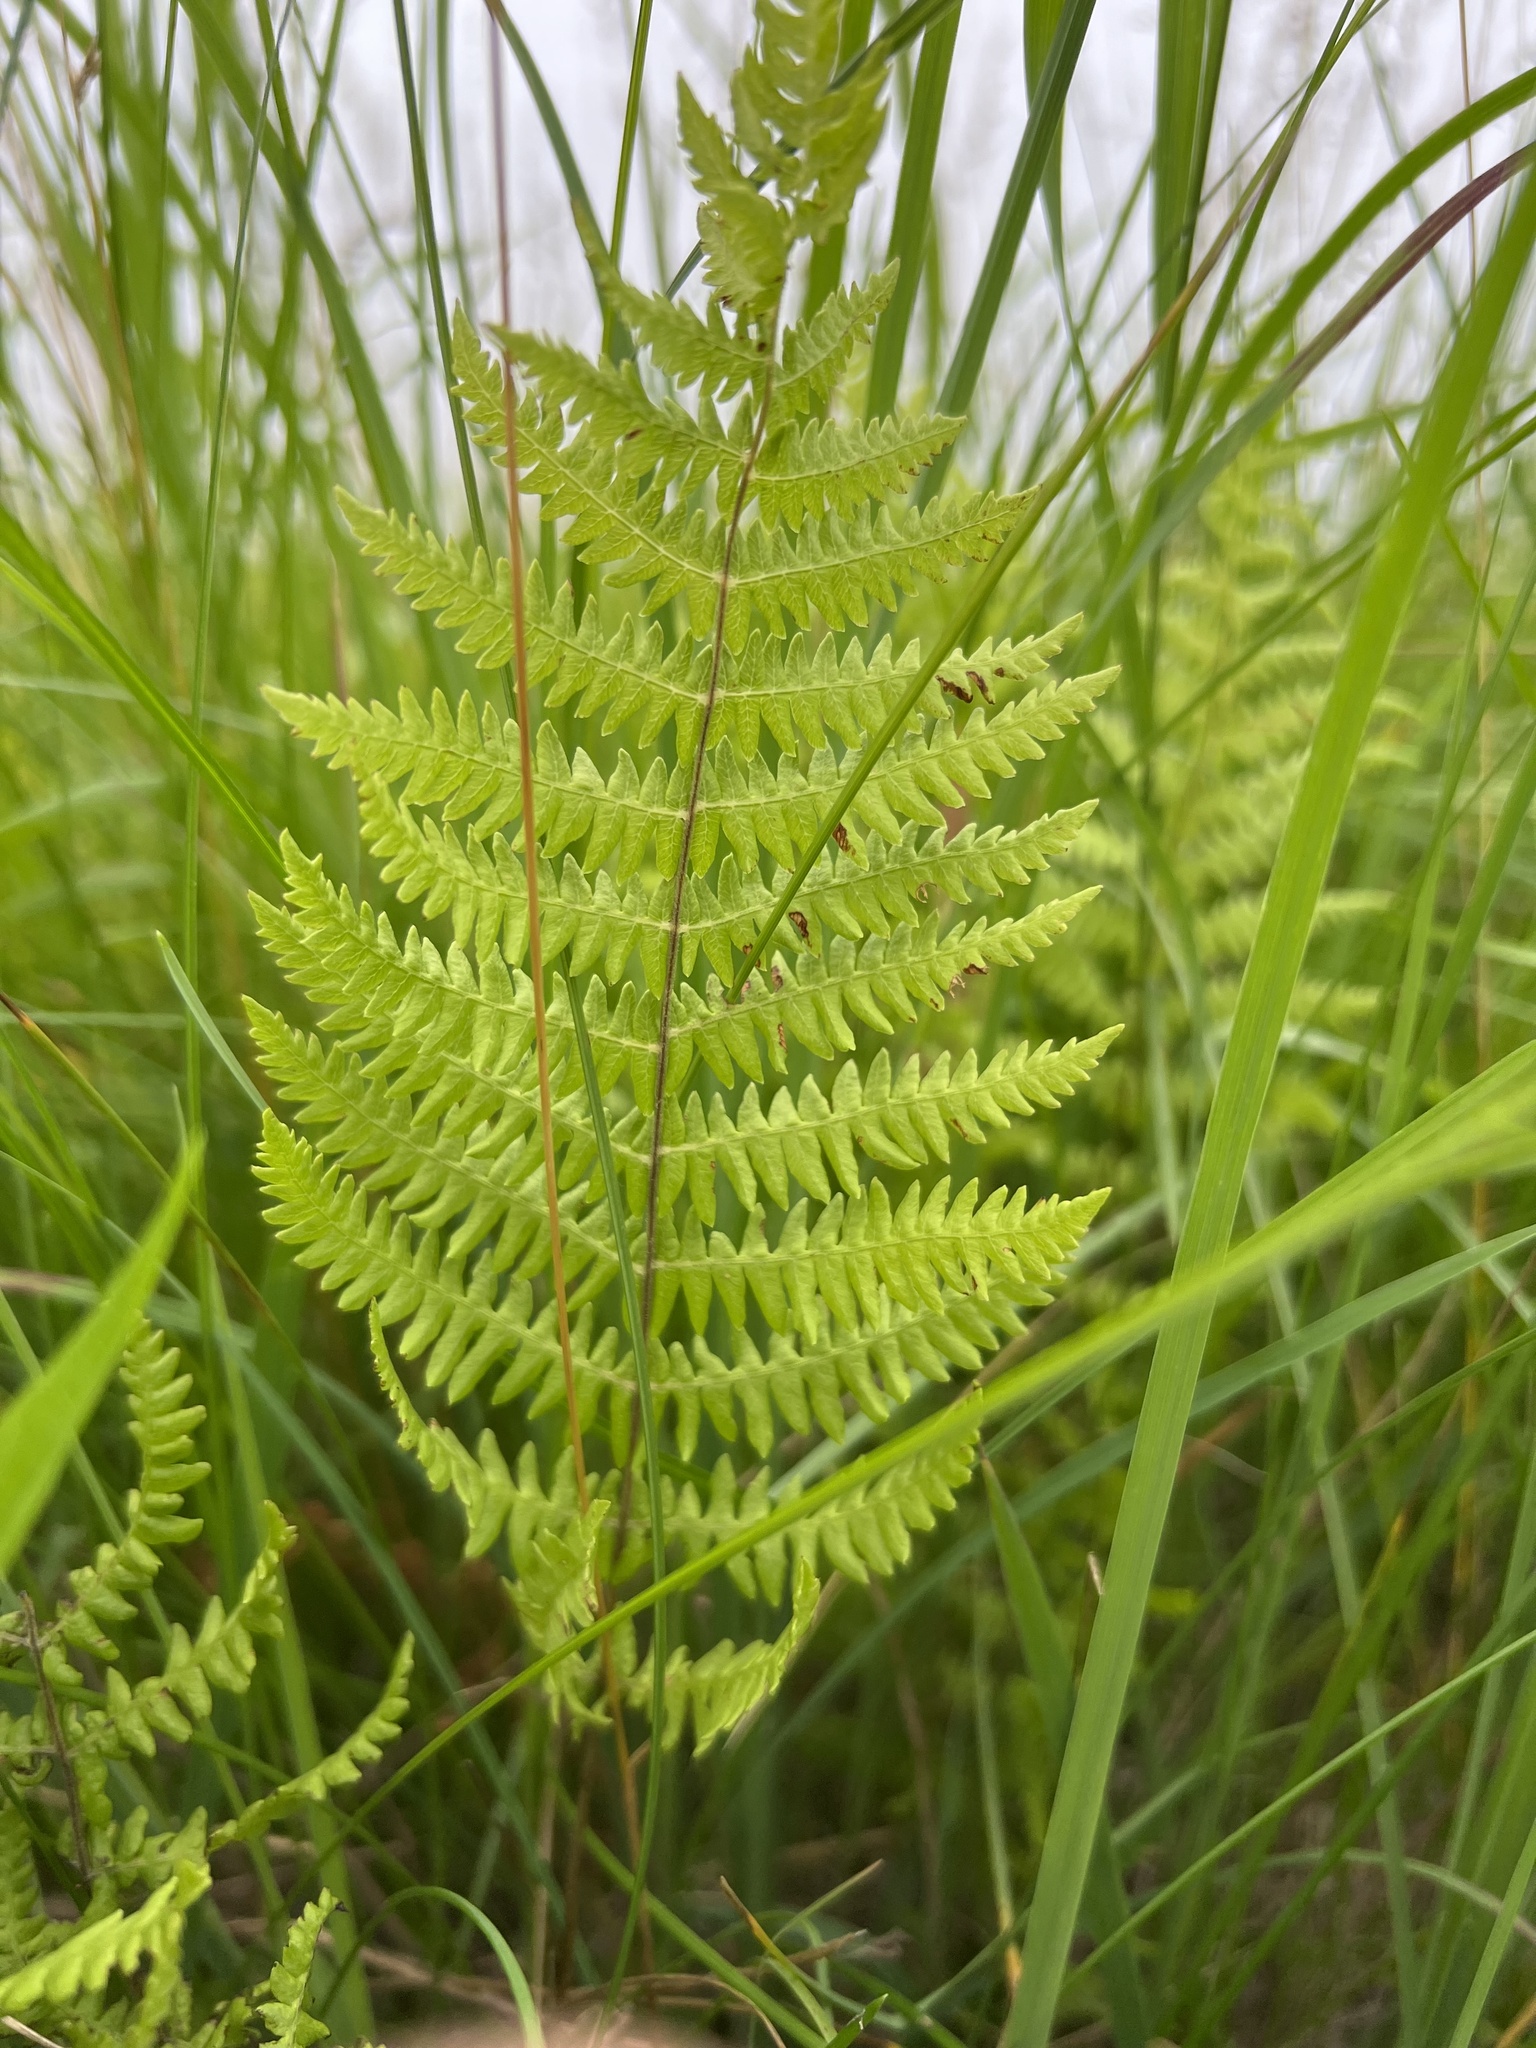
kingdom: Plantae
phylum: Tracheophyta
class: Polypodiopsida
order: Polypodiales
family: Thelypteridaceae
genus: Thelypteris
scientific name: Thelypteris palustris
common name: Marsh fern
